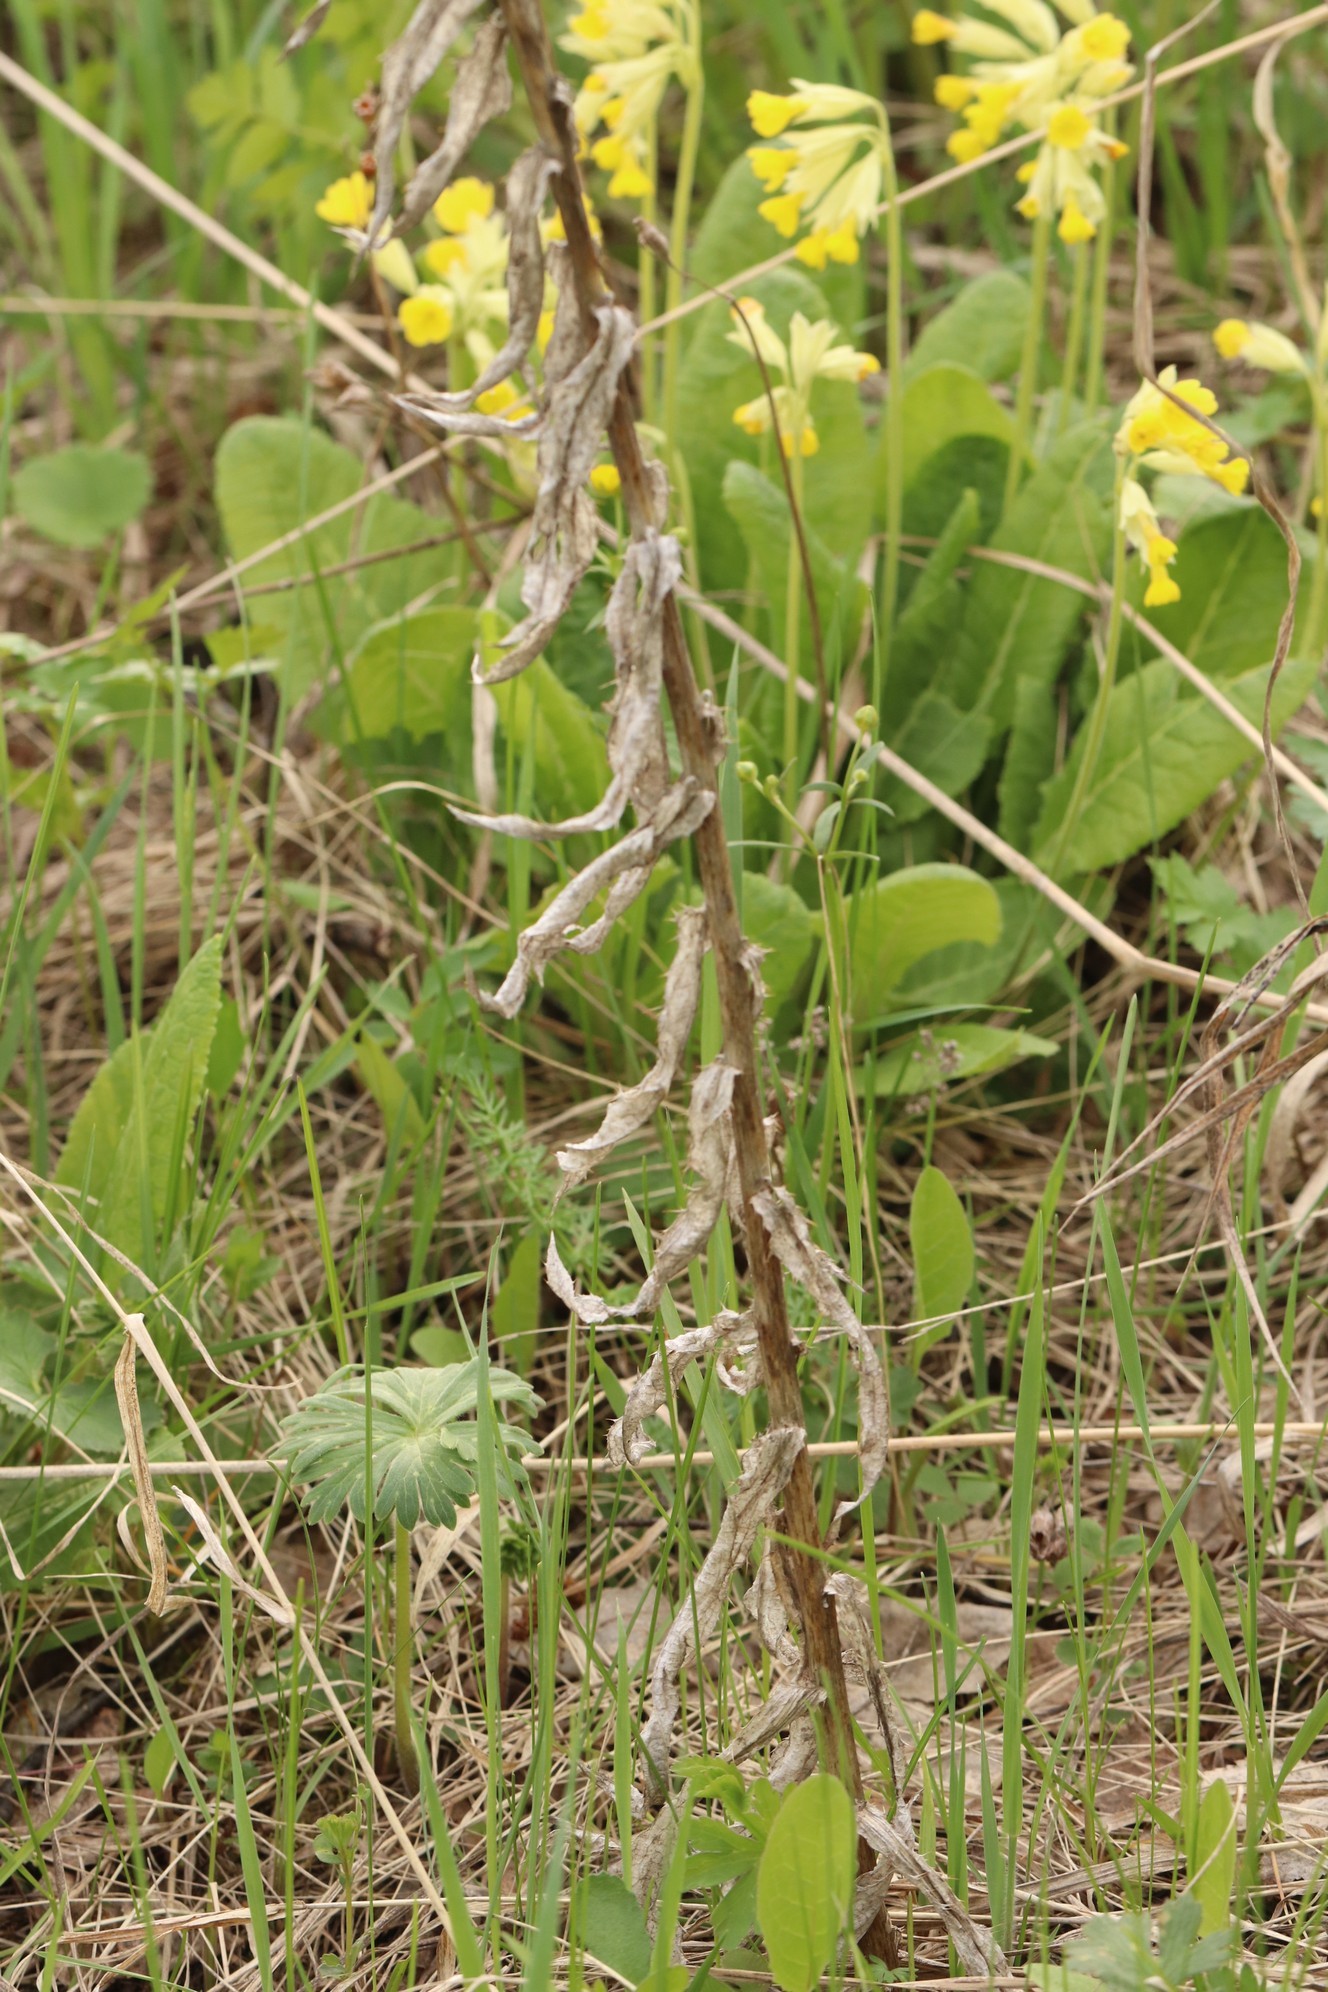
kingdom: Plantae
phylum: Tracheophyta
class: Magnoliopsida
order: Asterales
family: Asteraceae
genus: Carlina
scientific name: Carlina biebersteinii
